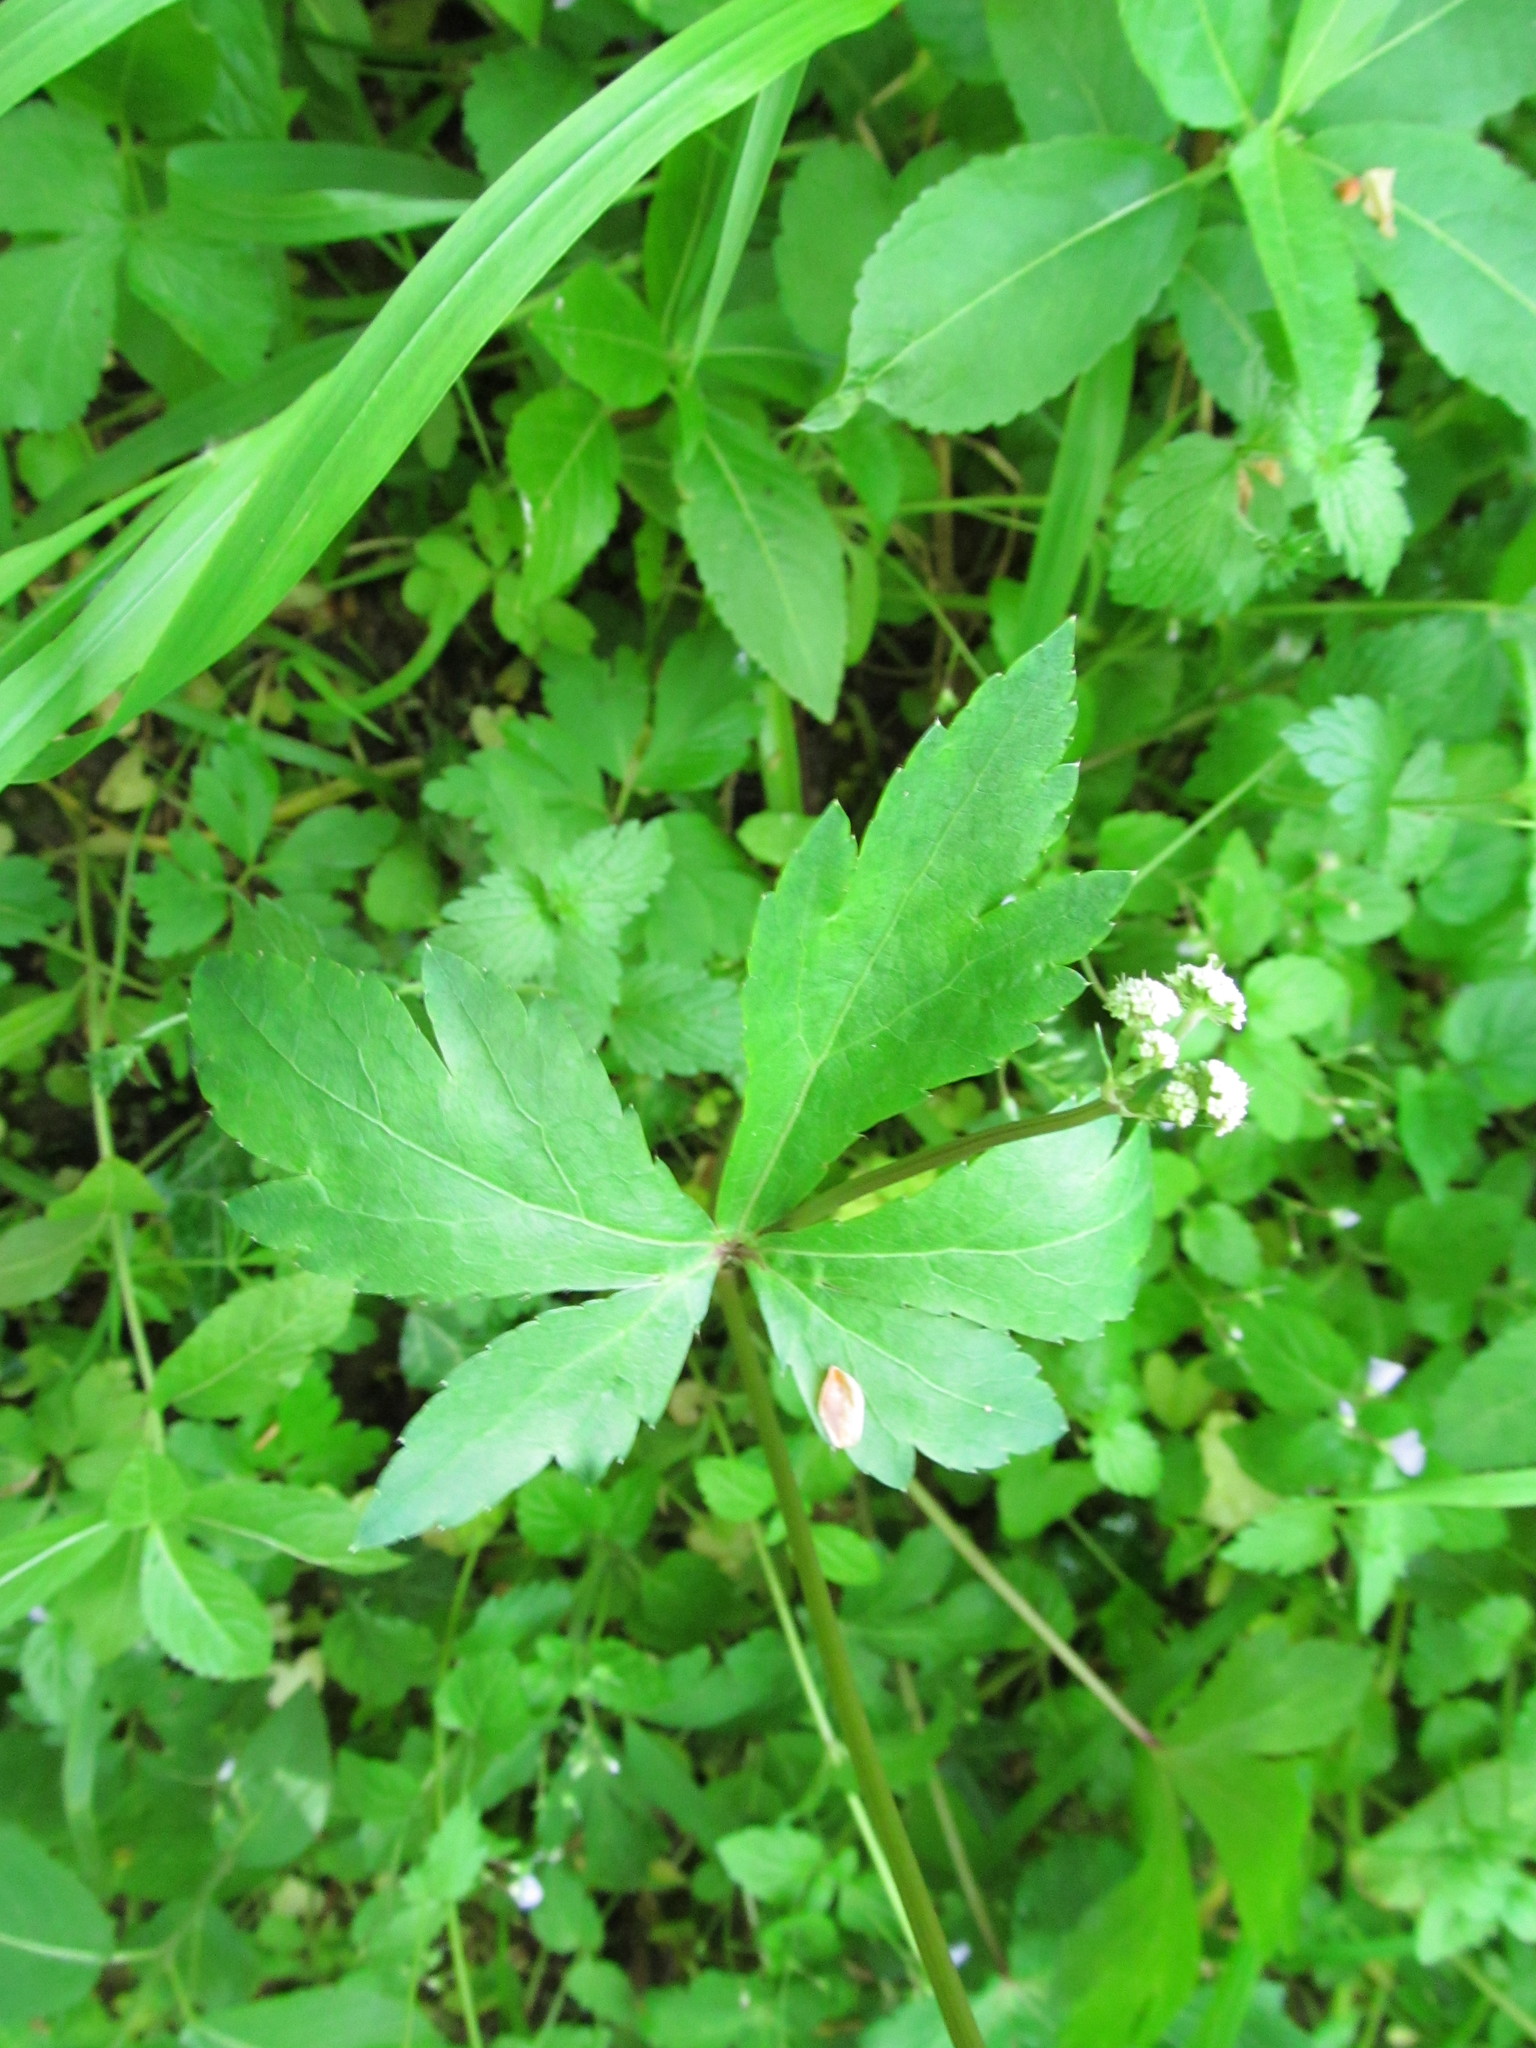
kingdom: Plantae
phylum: Tracheophyta
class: Magnoliopsida
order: Apiales
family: Apiaceae
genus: Sanicula
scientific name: Sanicula europaea
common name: Sanicle
